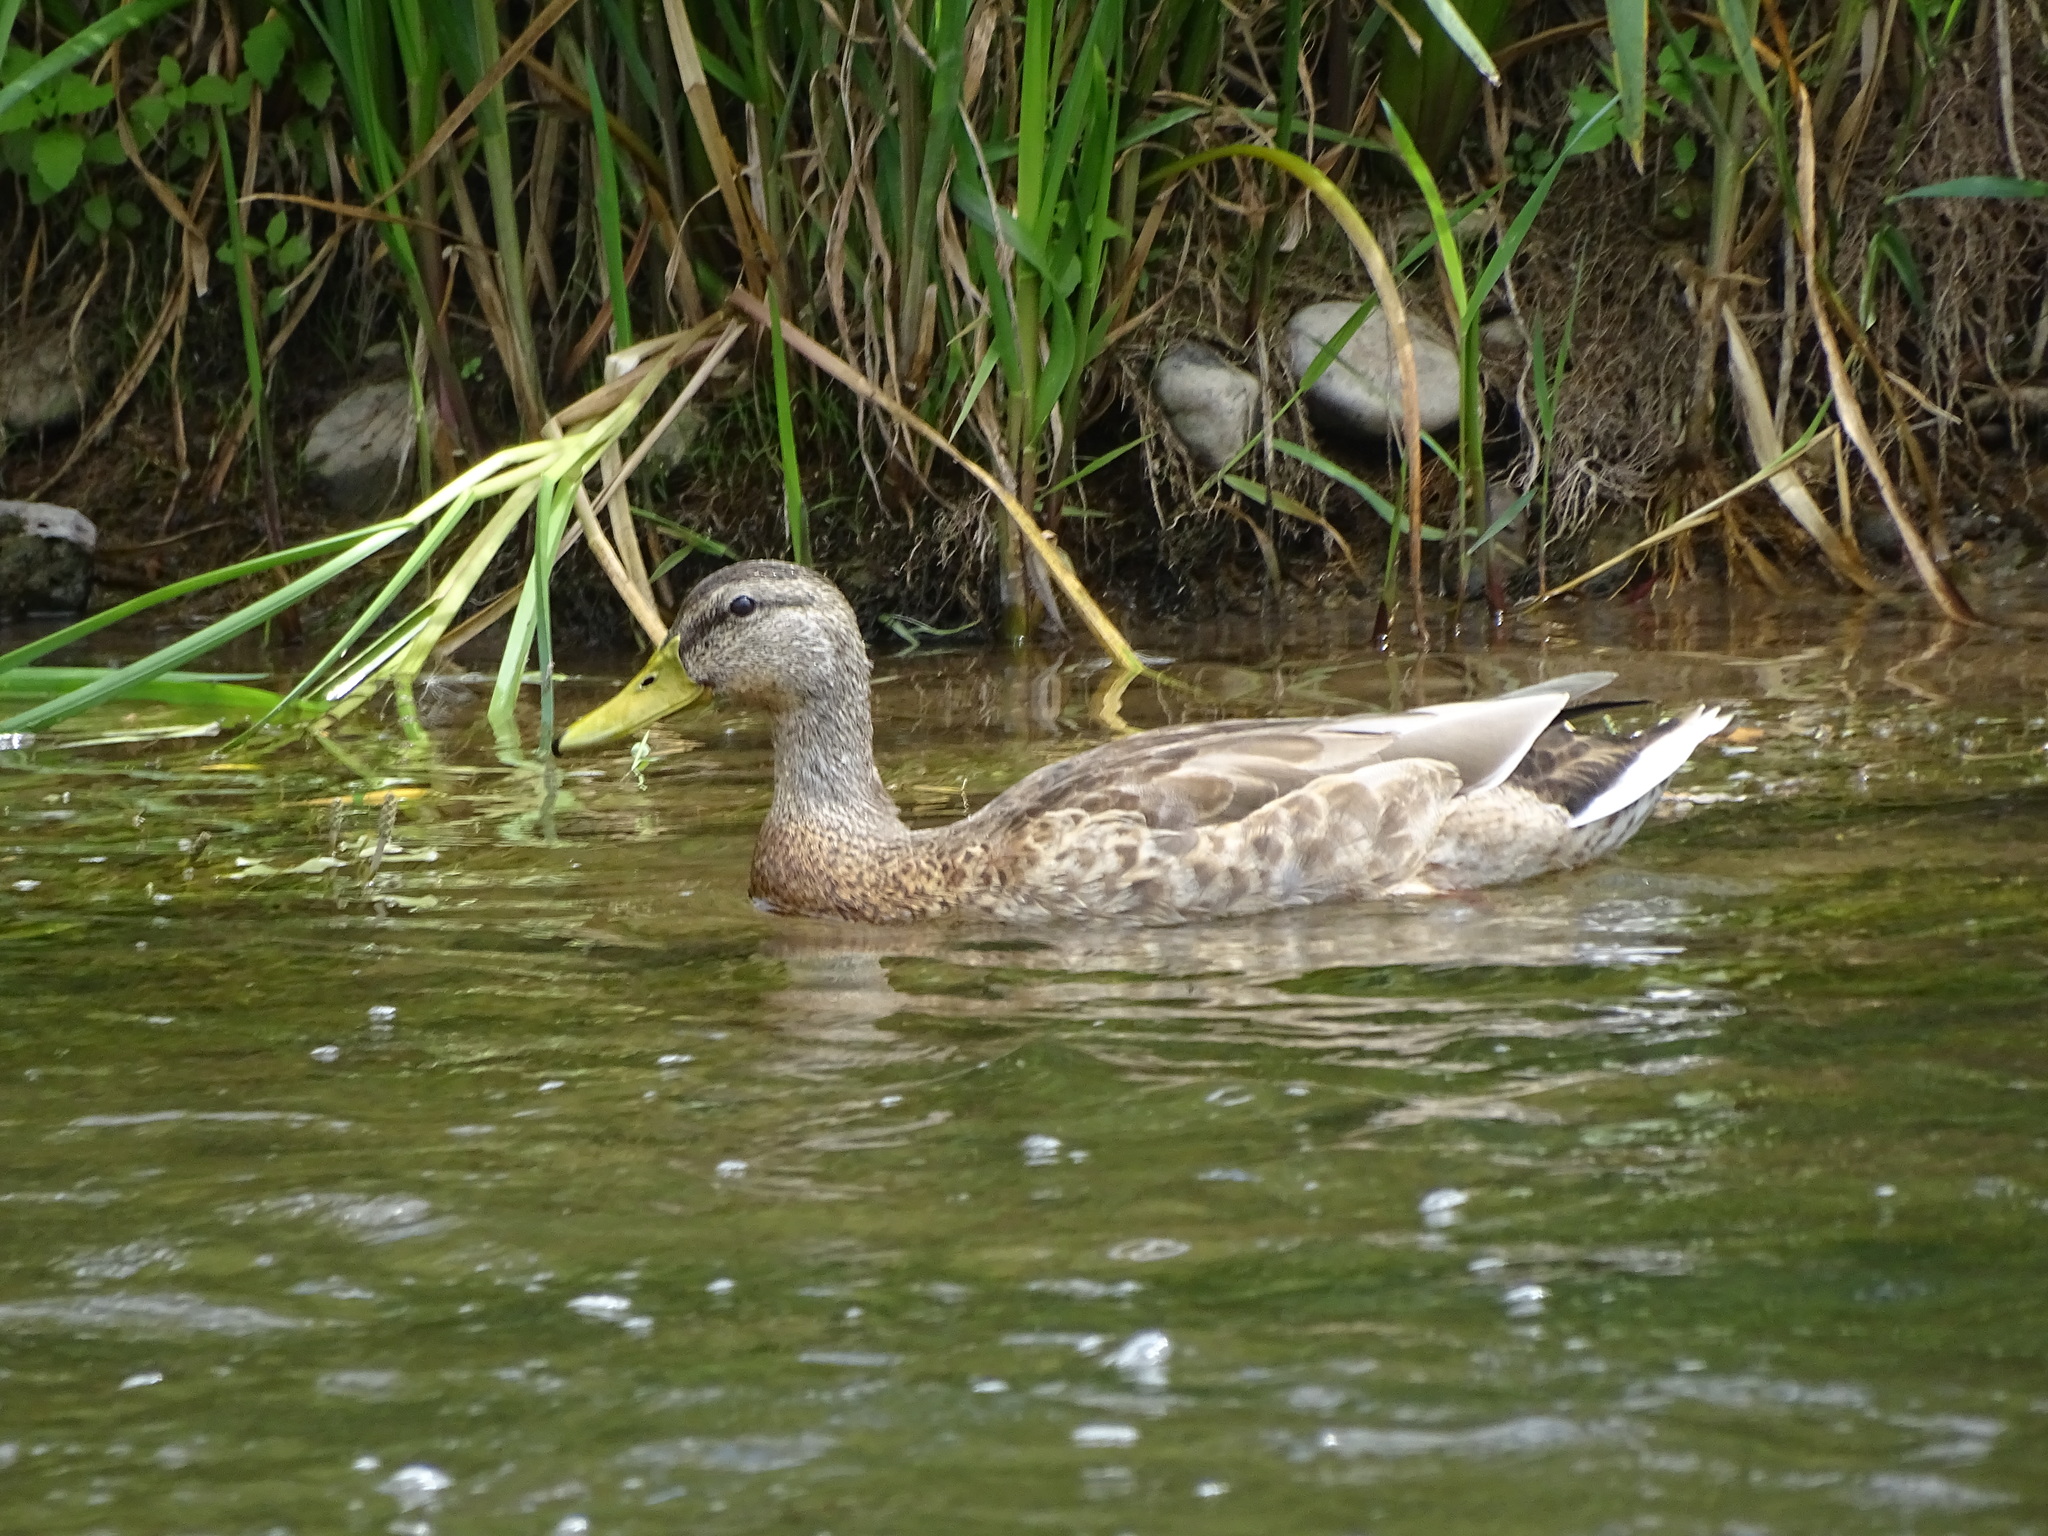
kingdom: Animalia
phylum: Chordata
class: Aves
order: Anseriformes
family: Anatidae
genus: Anas
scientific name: Anas platyrhynchos
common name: Mallard
